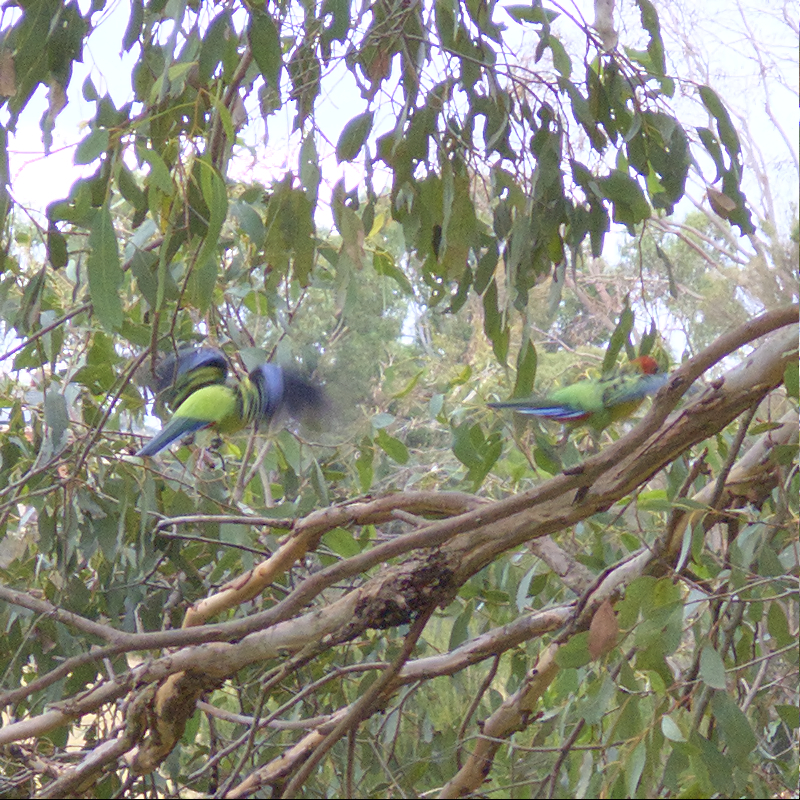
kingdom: Animalia
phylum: Chordata
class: Aves
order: Psittaciformes
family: Psittacidae
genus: Platycercus
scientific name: Platycercus eximius
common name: Eastern rosella
